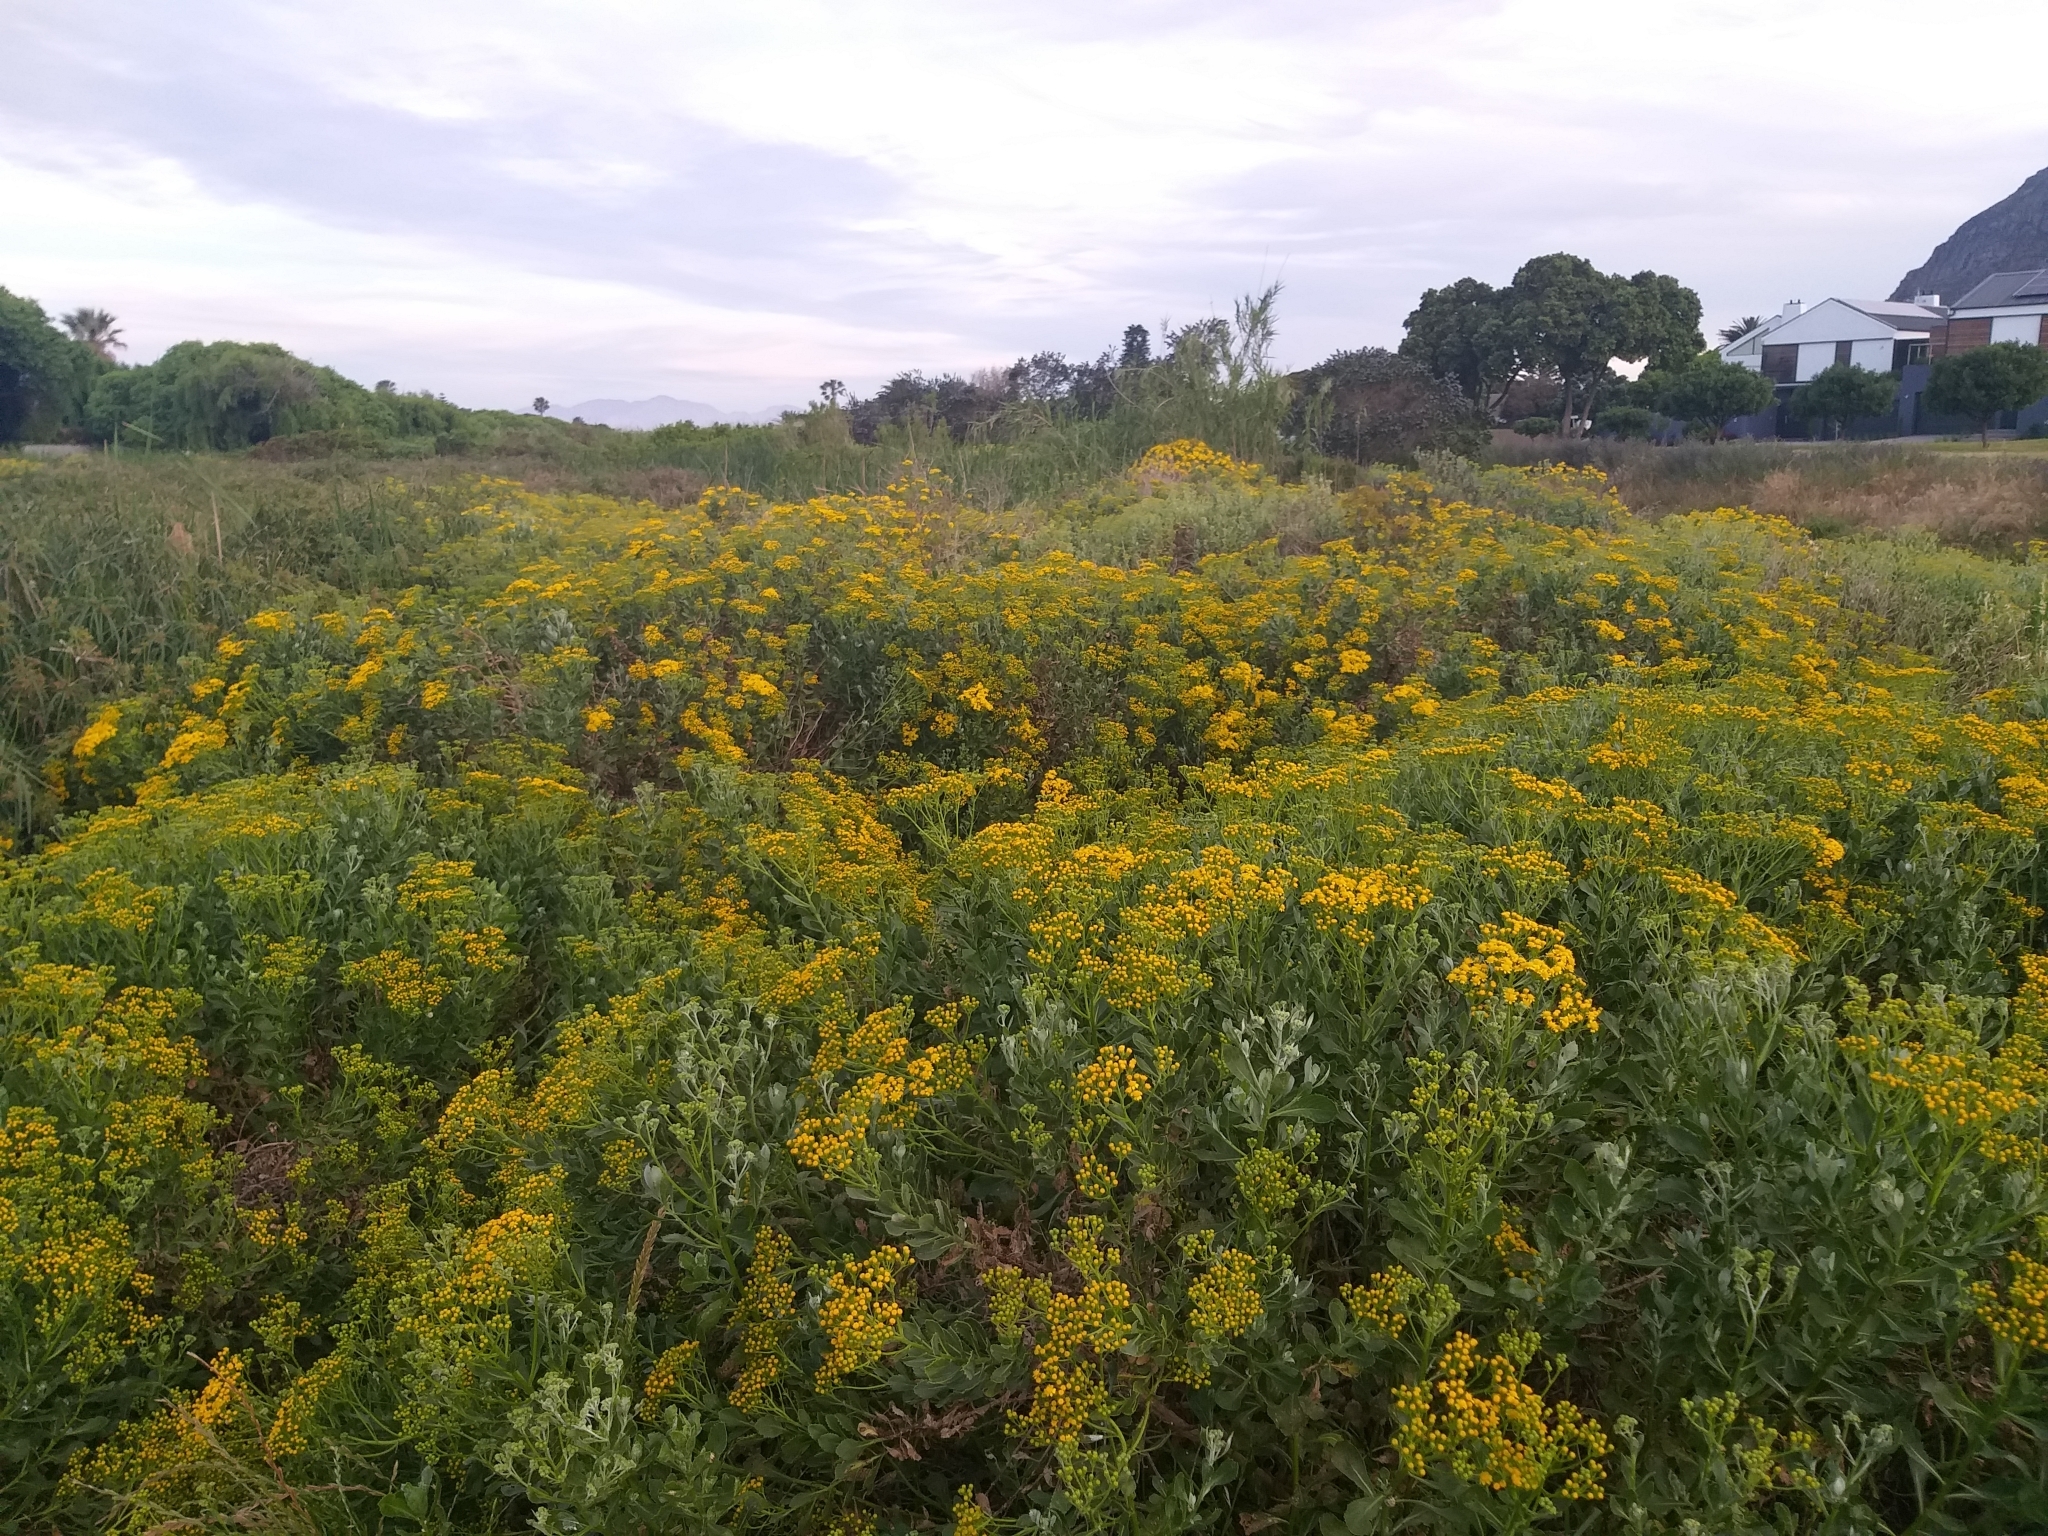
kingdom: Plantae
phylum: Tracheophyta
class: Magnoliopsida
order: Asterales
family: Asteraceae
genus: Senecio
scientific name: Senecio halimifolius
